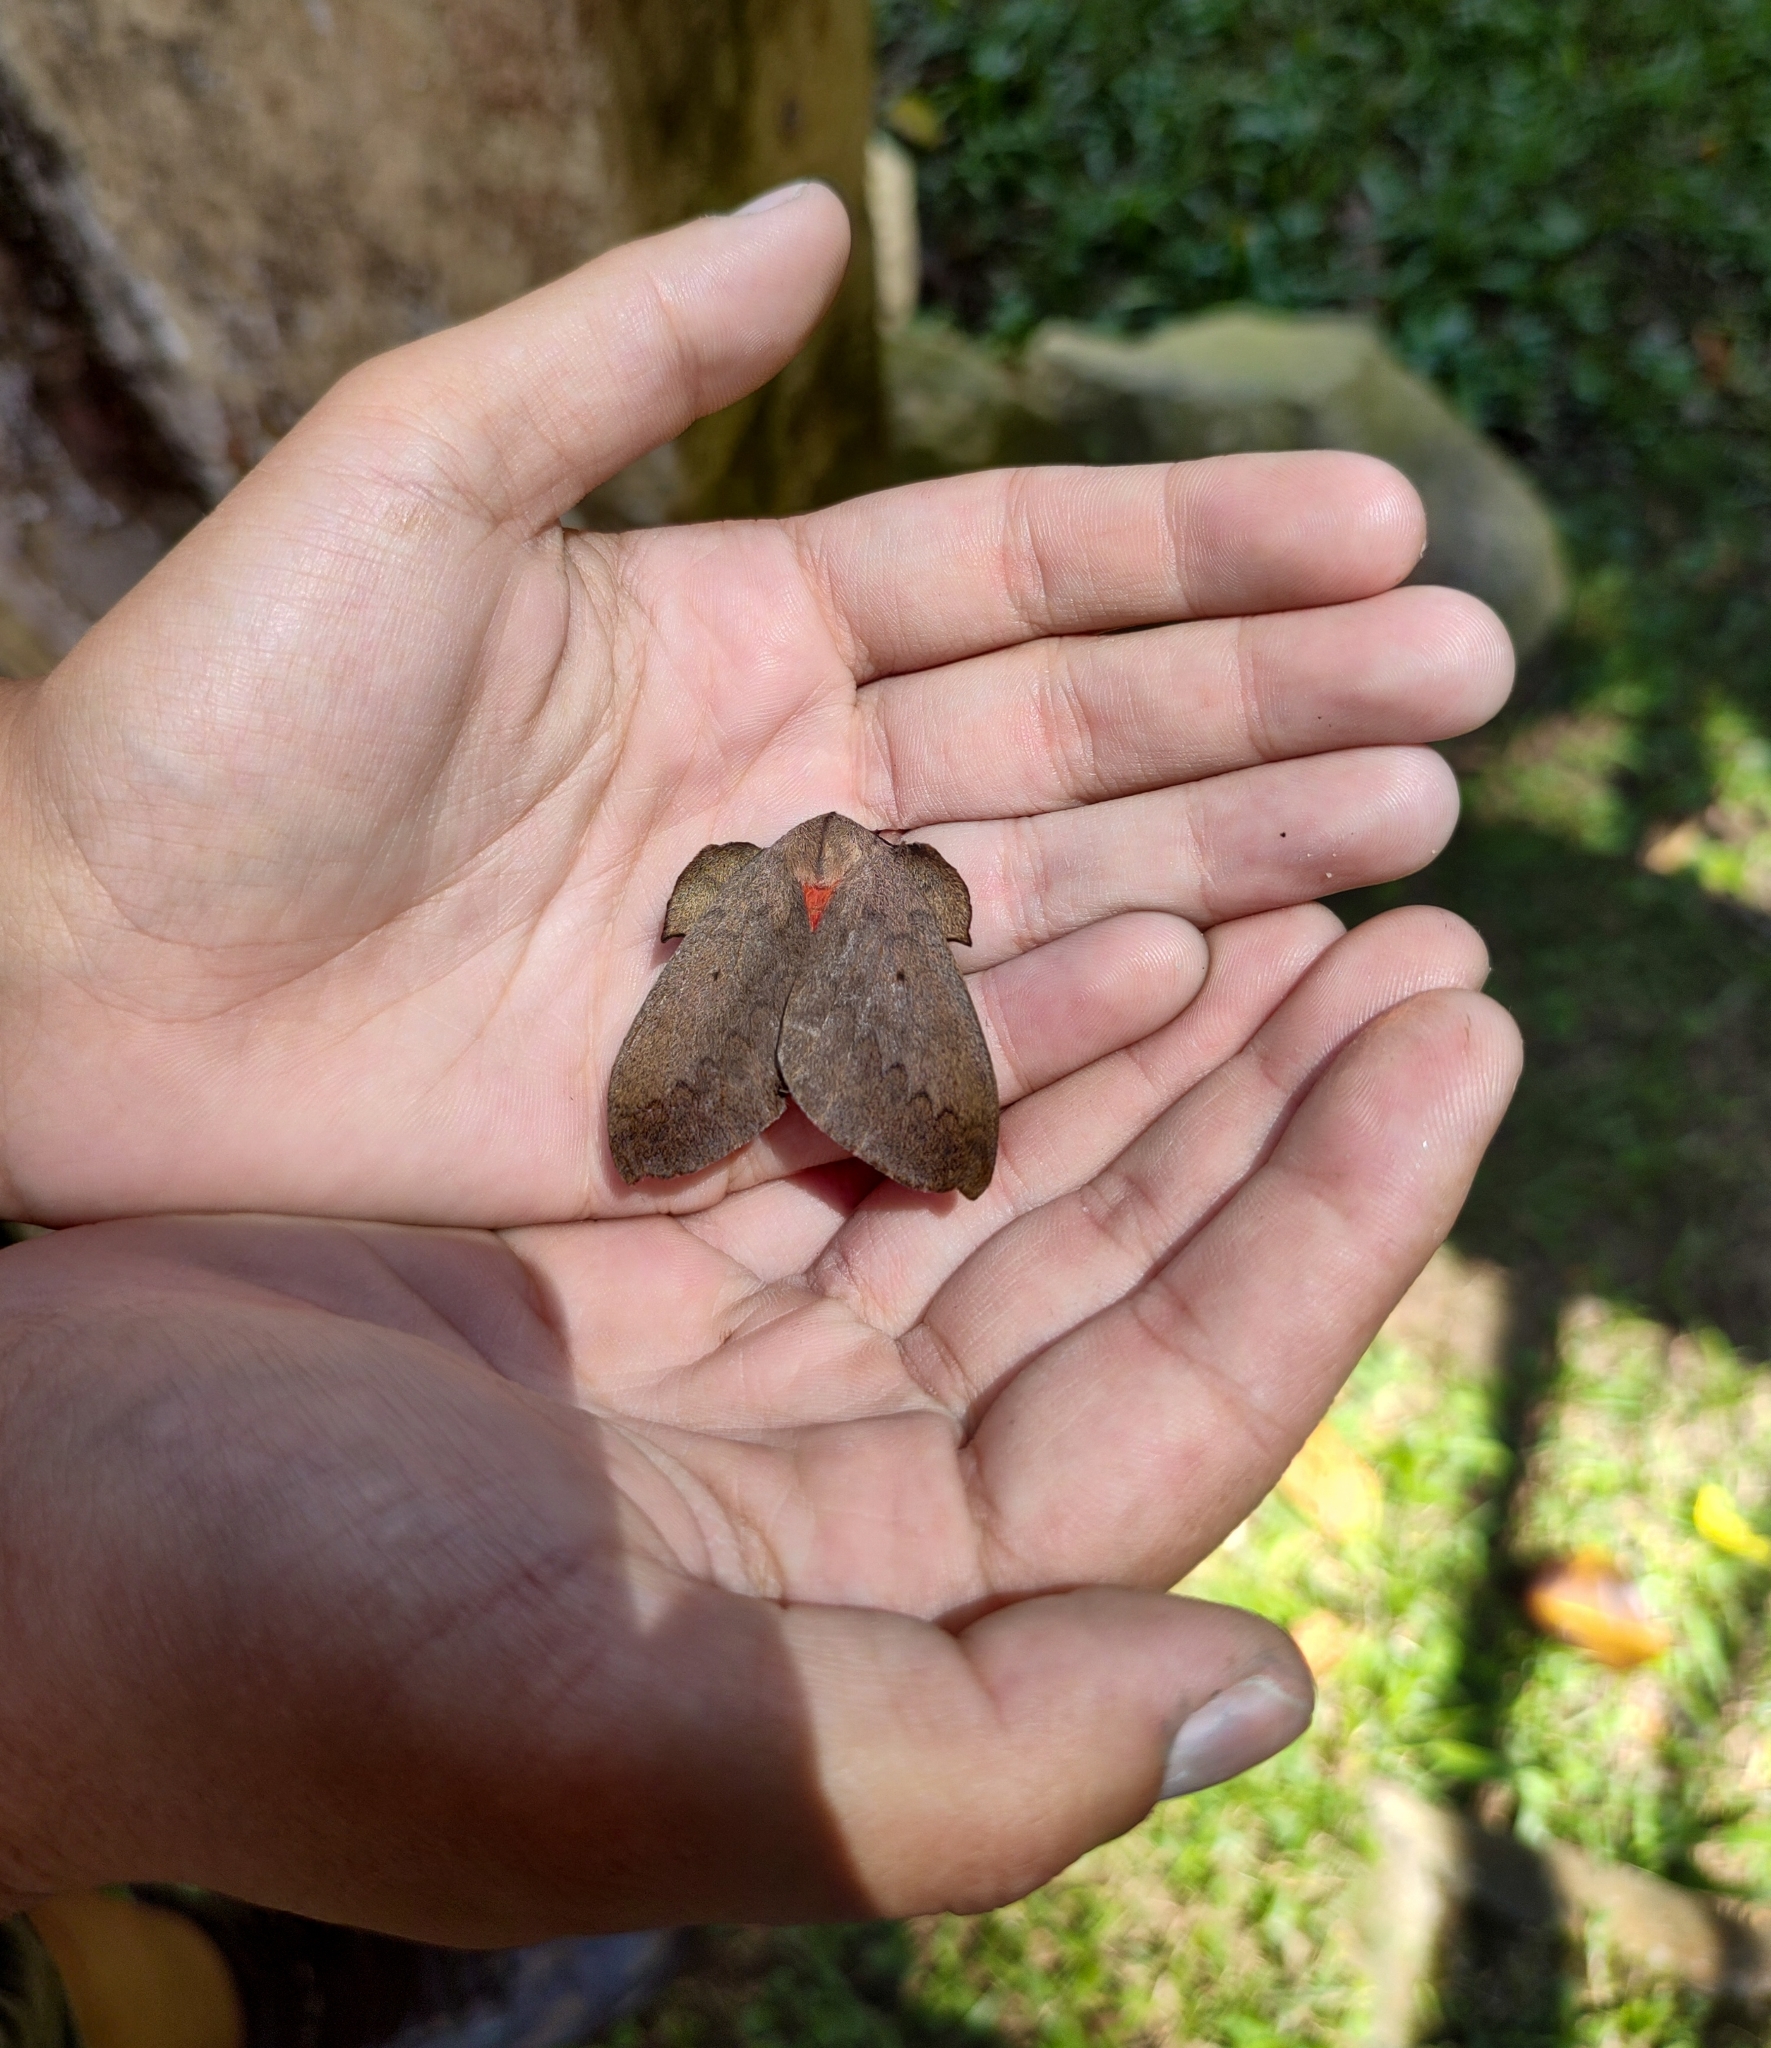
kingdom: Animalia
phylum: Arthropoda
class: Insecta
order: Lepidoptera
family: Saturniidae
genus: Travassosula
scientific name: Travassosula subfumata
